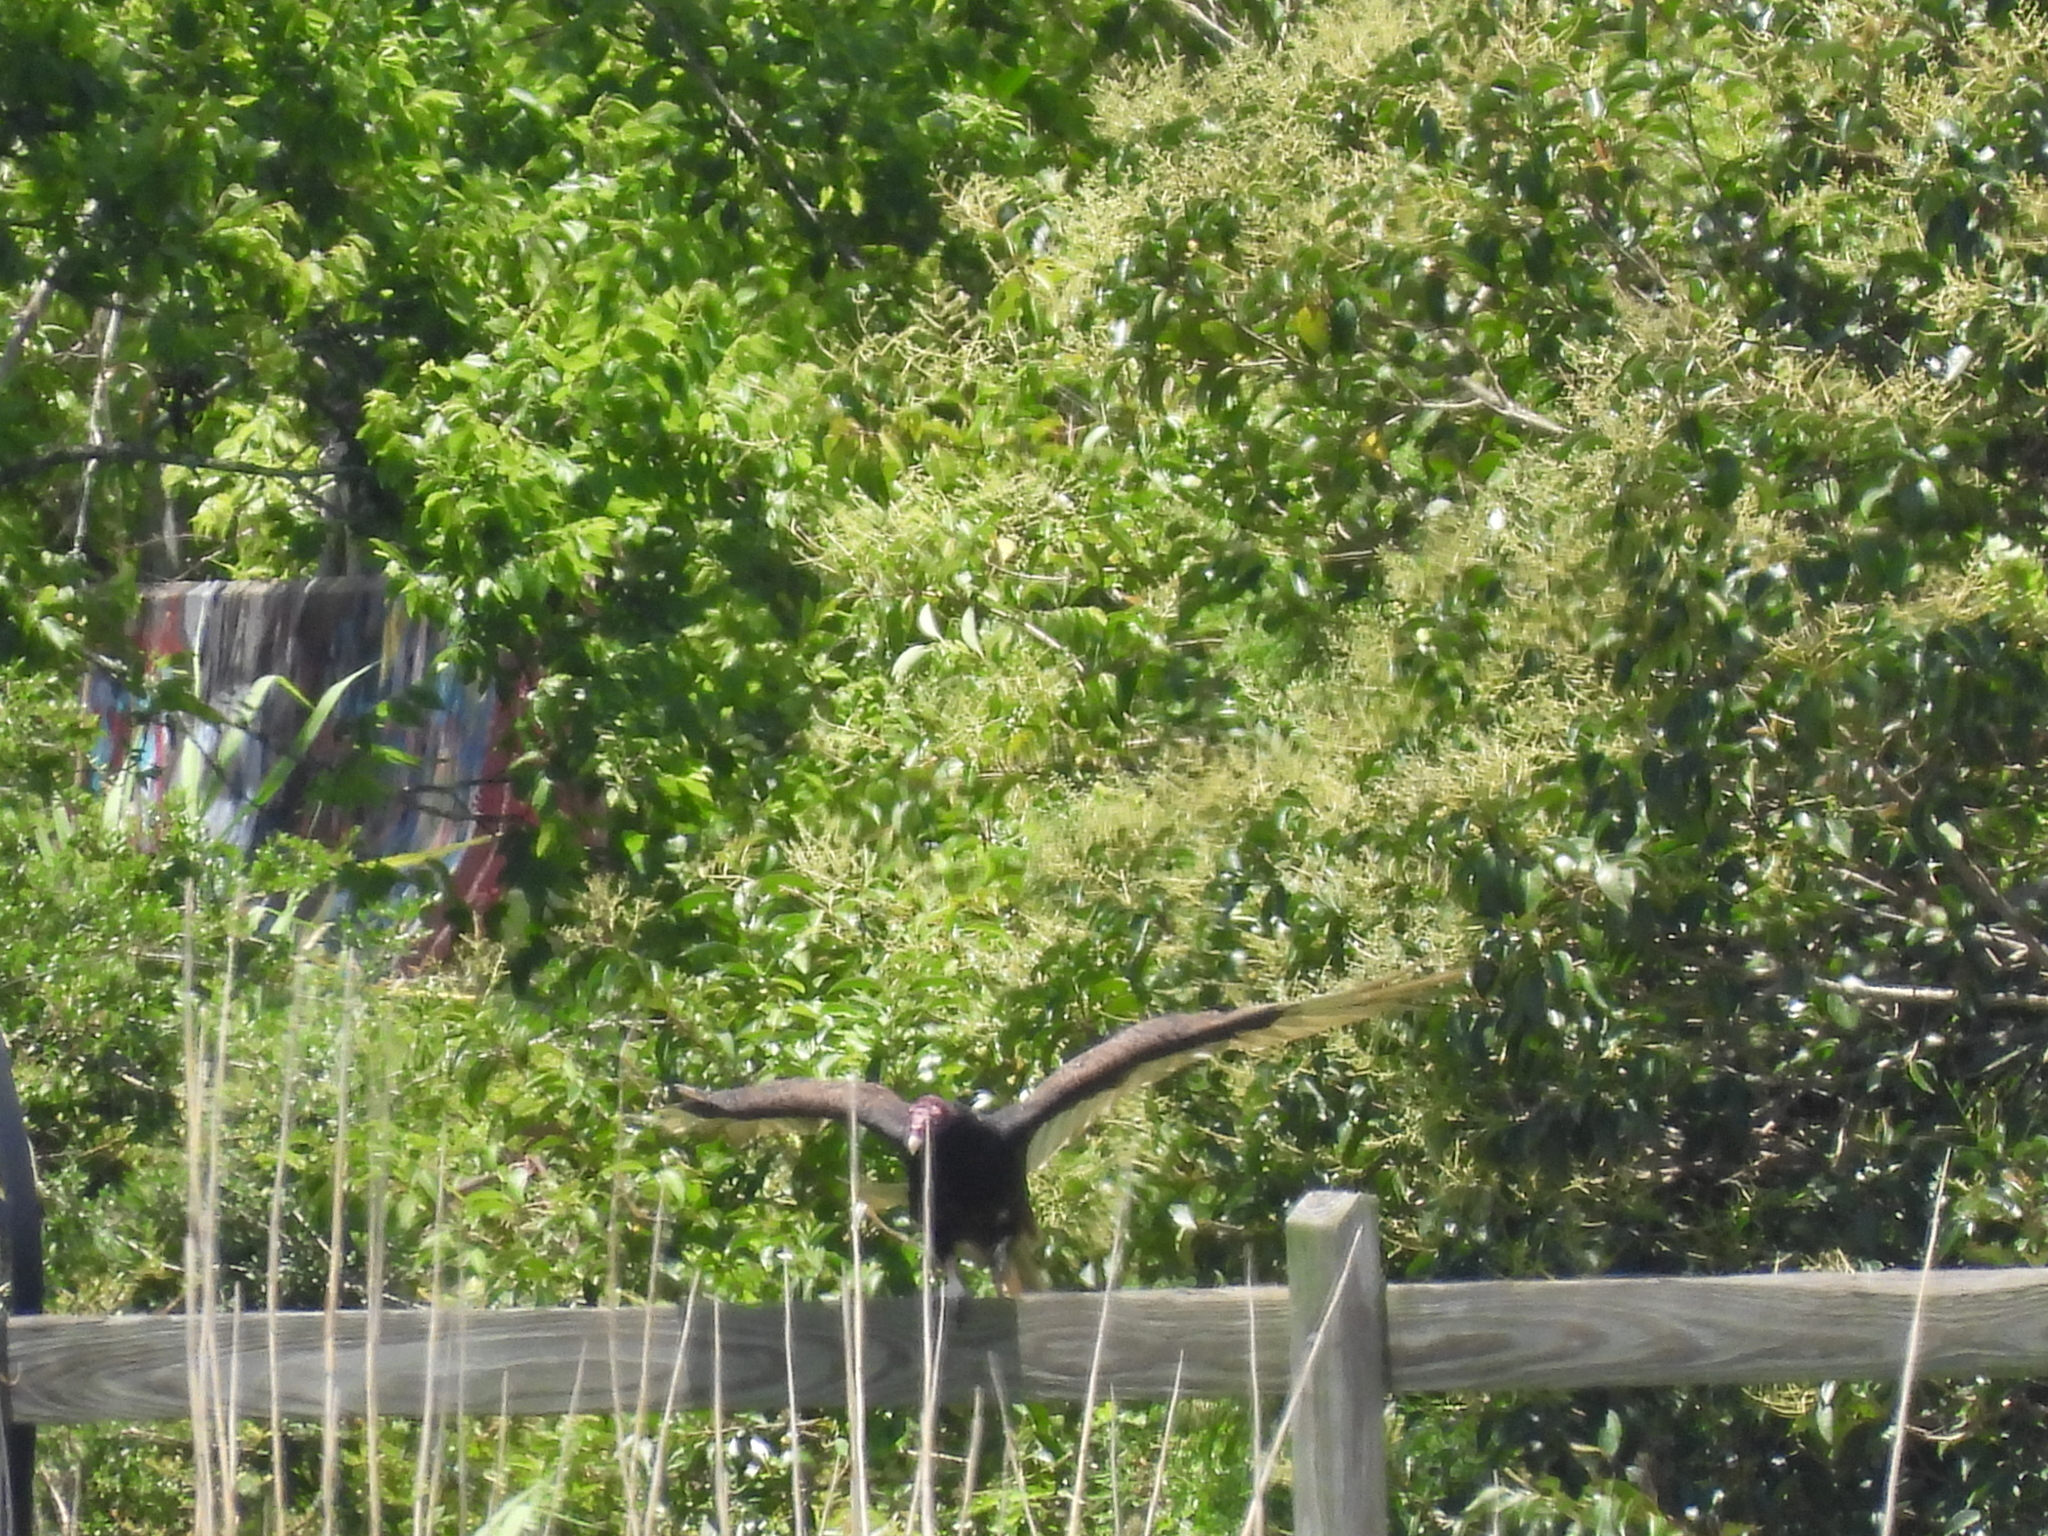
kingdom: Animalia
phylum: Chordata
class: Aves
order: Accipitriformes
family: Cathartidae
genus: Cathartes
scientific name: Cathartes aura
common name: Turkey vulture
